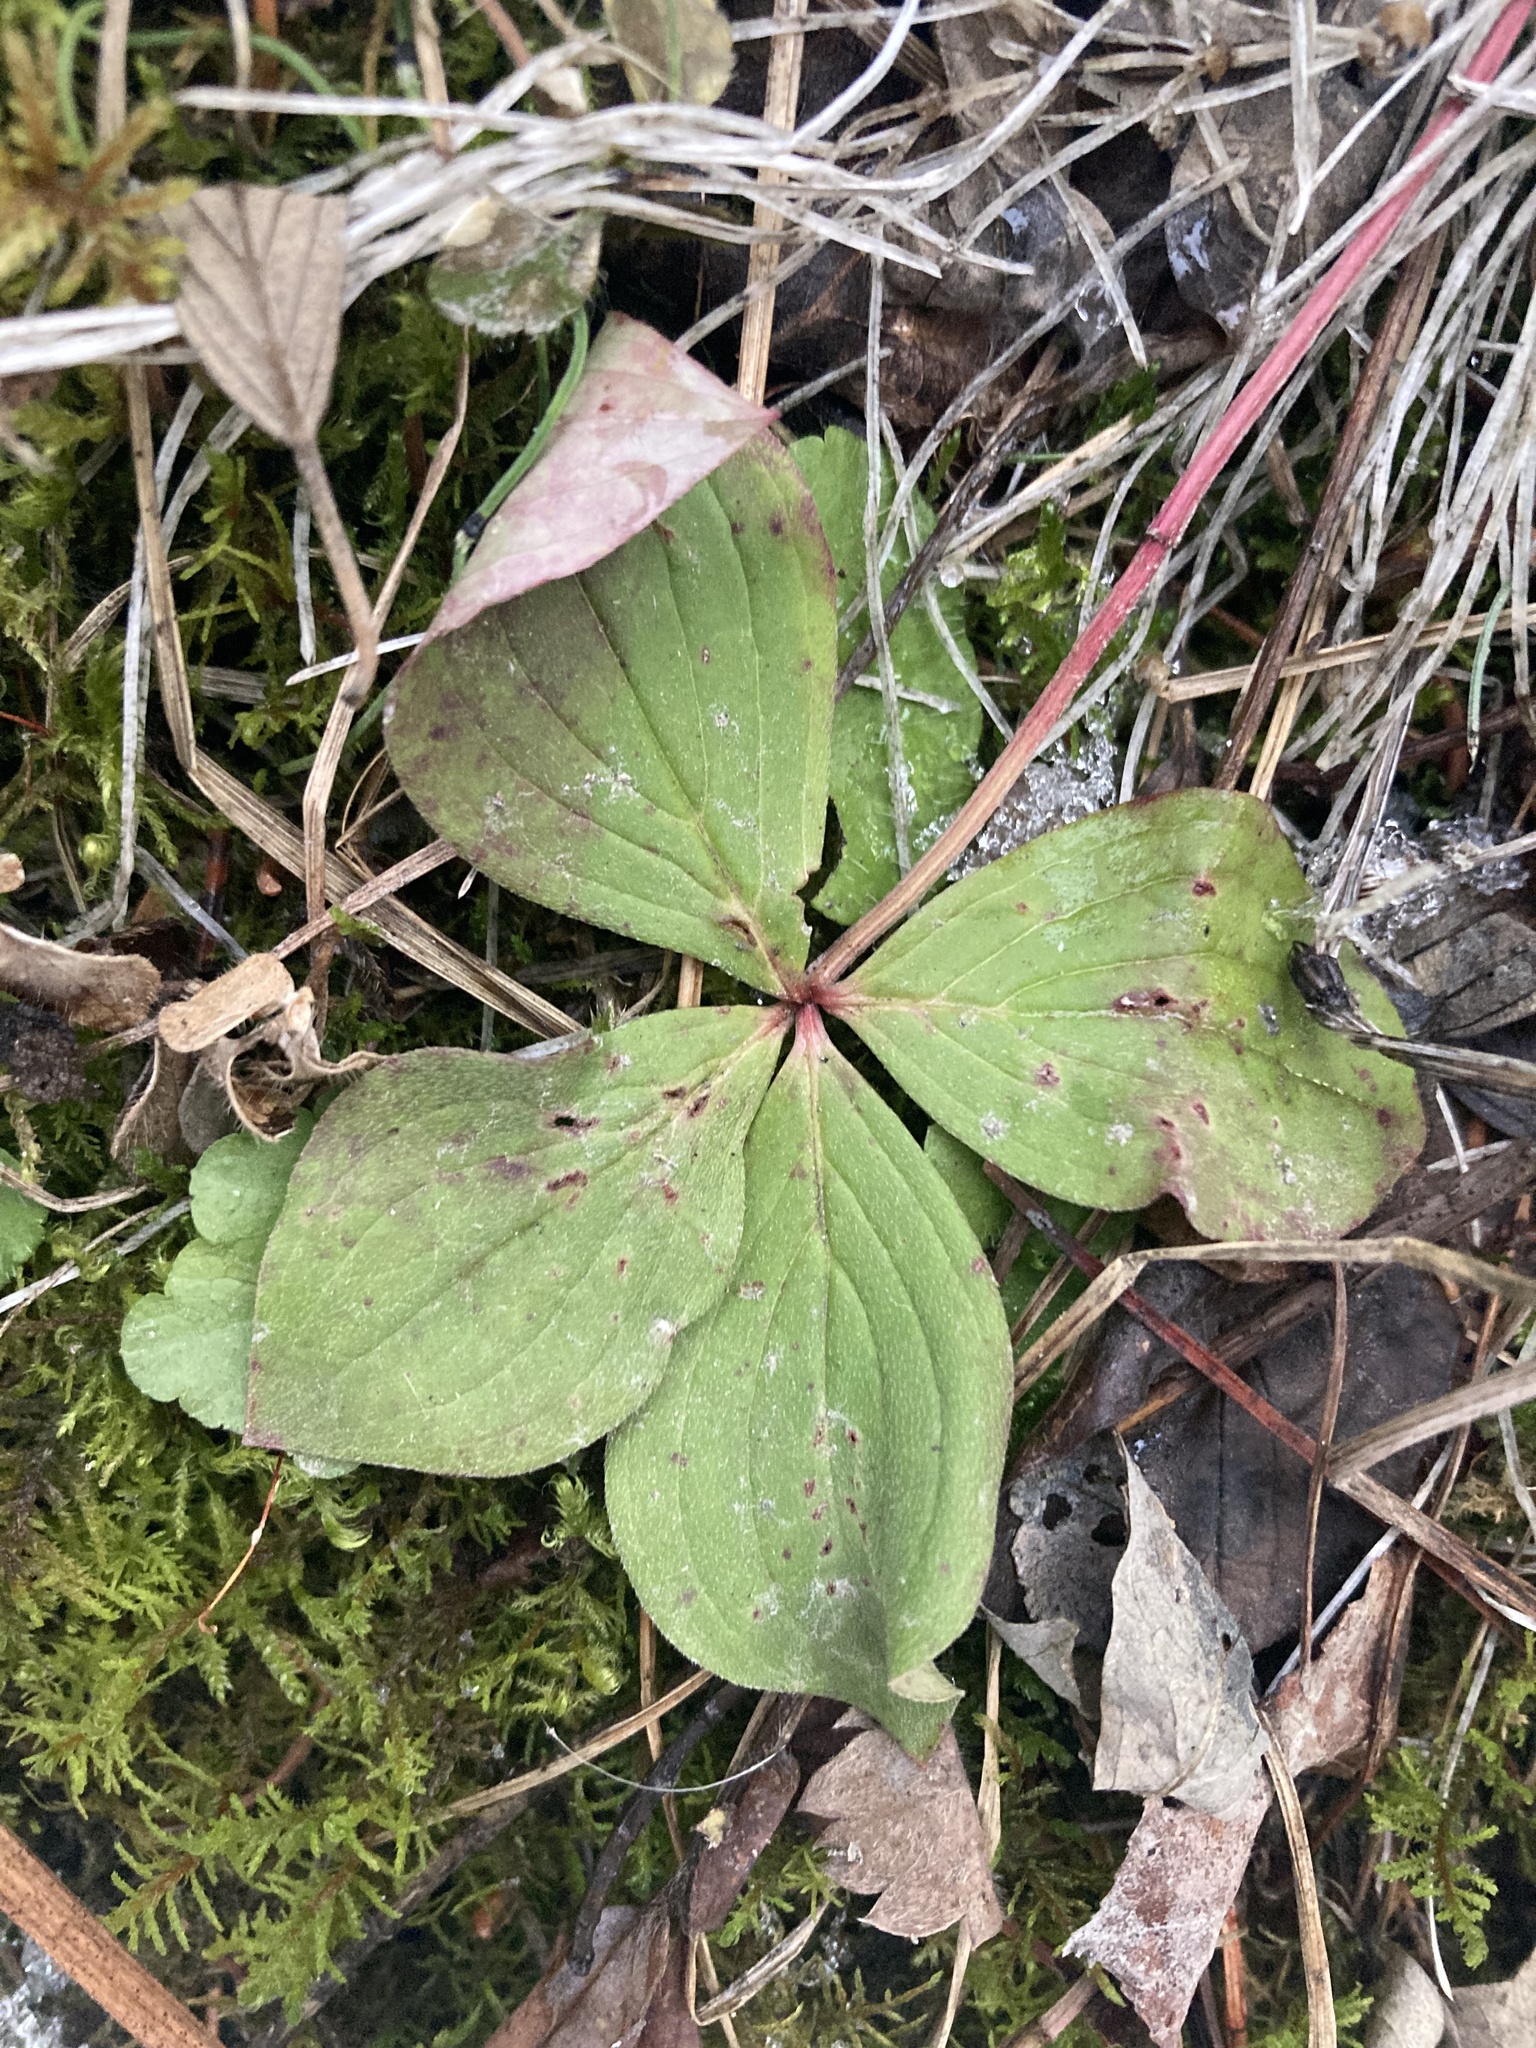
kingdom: Plantae
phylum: Tracheophyta
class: Magnoliopsida
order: Cornales
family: Cornaceae
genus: Cornus
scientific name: Cornus canadensis
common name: Creeping dogwood
